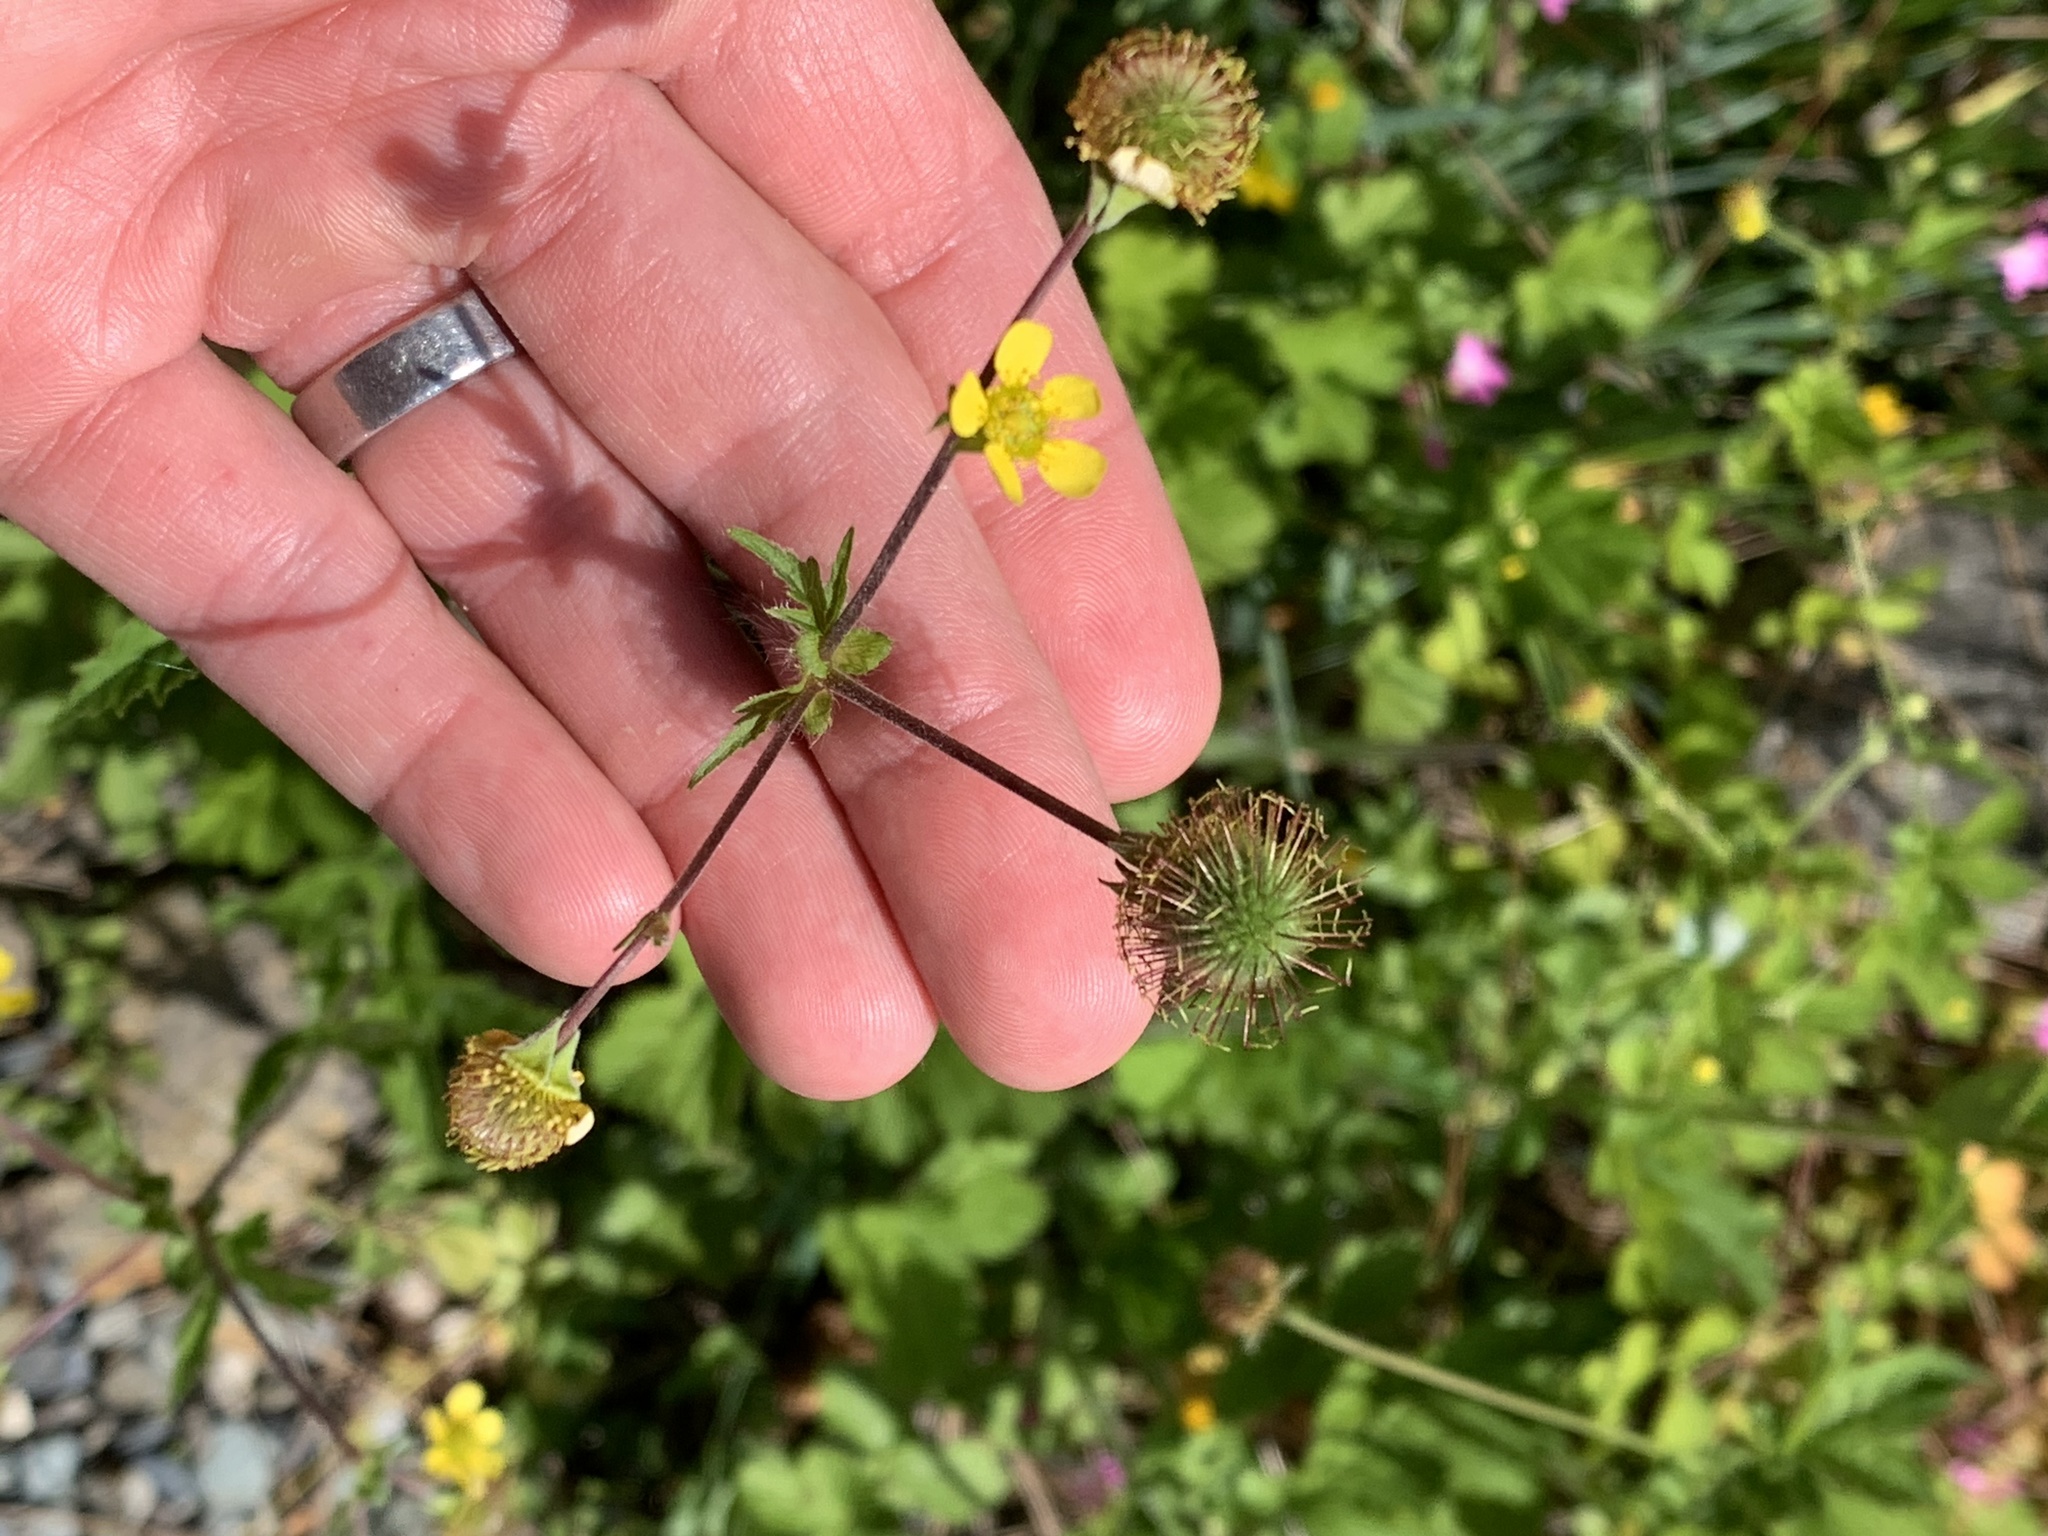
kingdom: Plantae
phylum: Tracheophyta
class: Magnoliopsida
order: Rosales
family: Rosaceae
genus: Geum
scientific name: Geum macrophyllum
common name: Large-leaved avens
